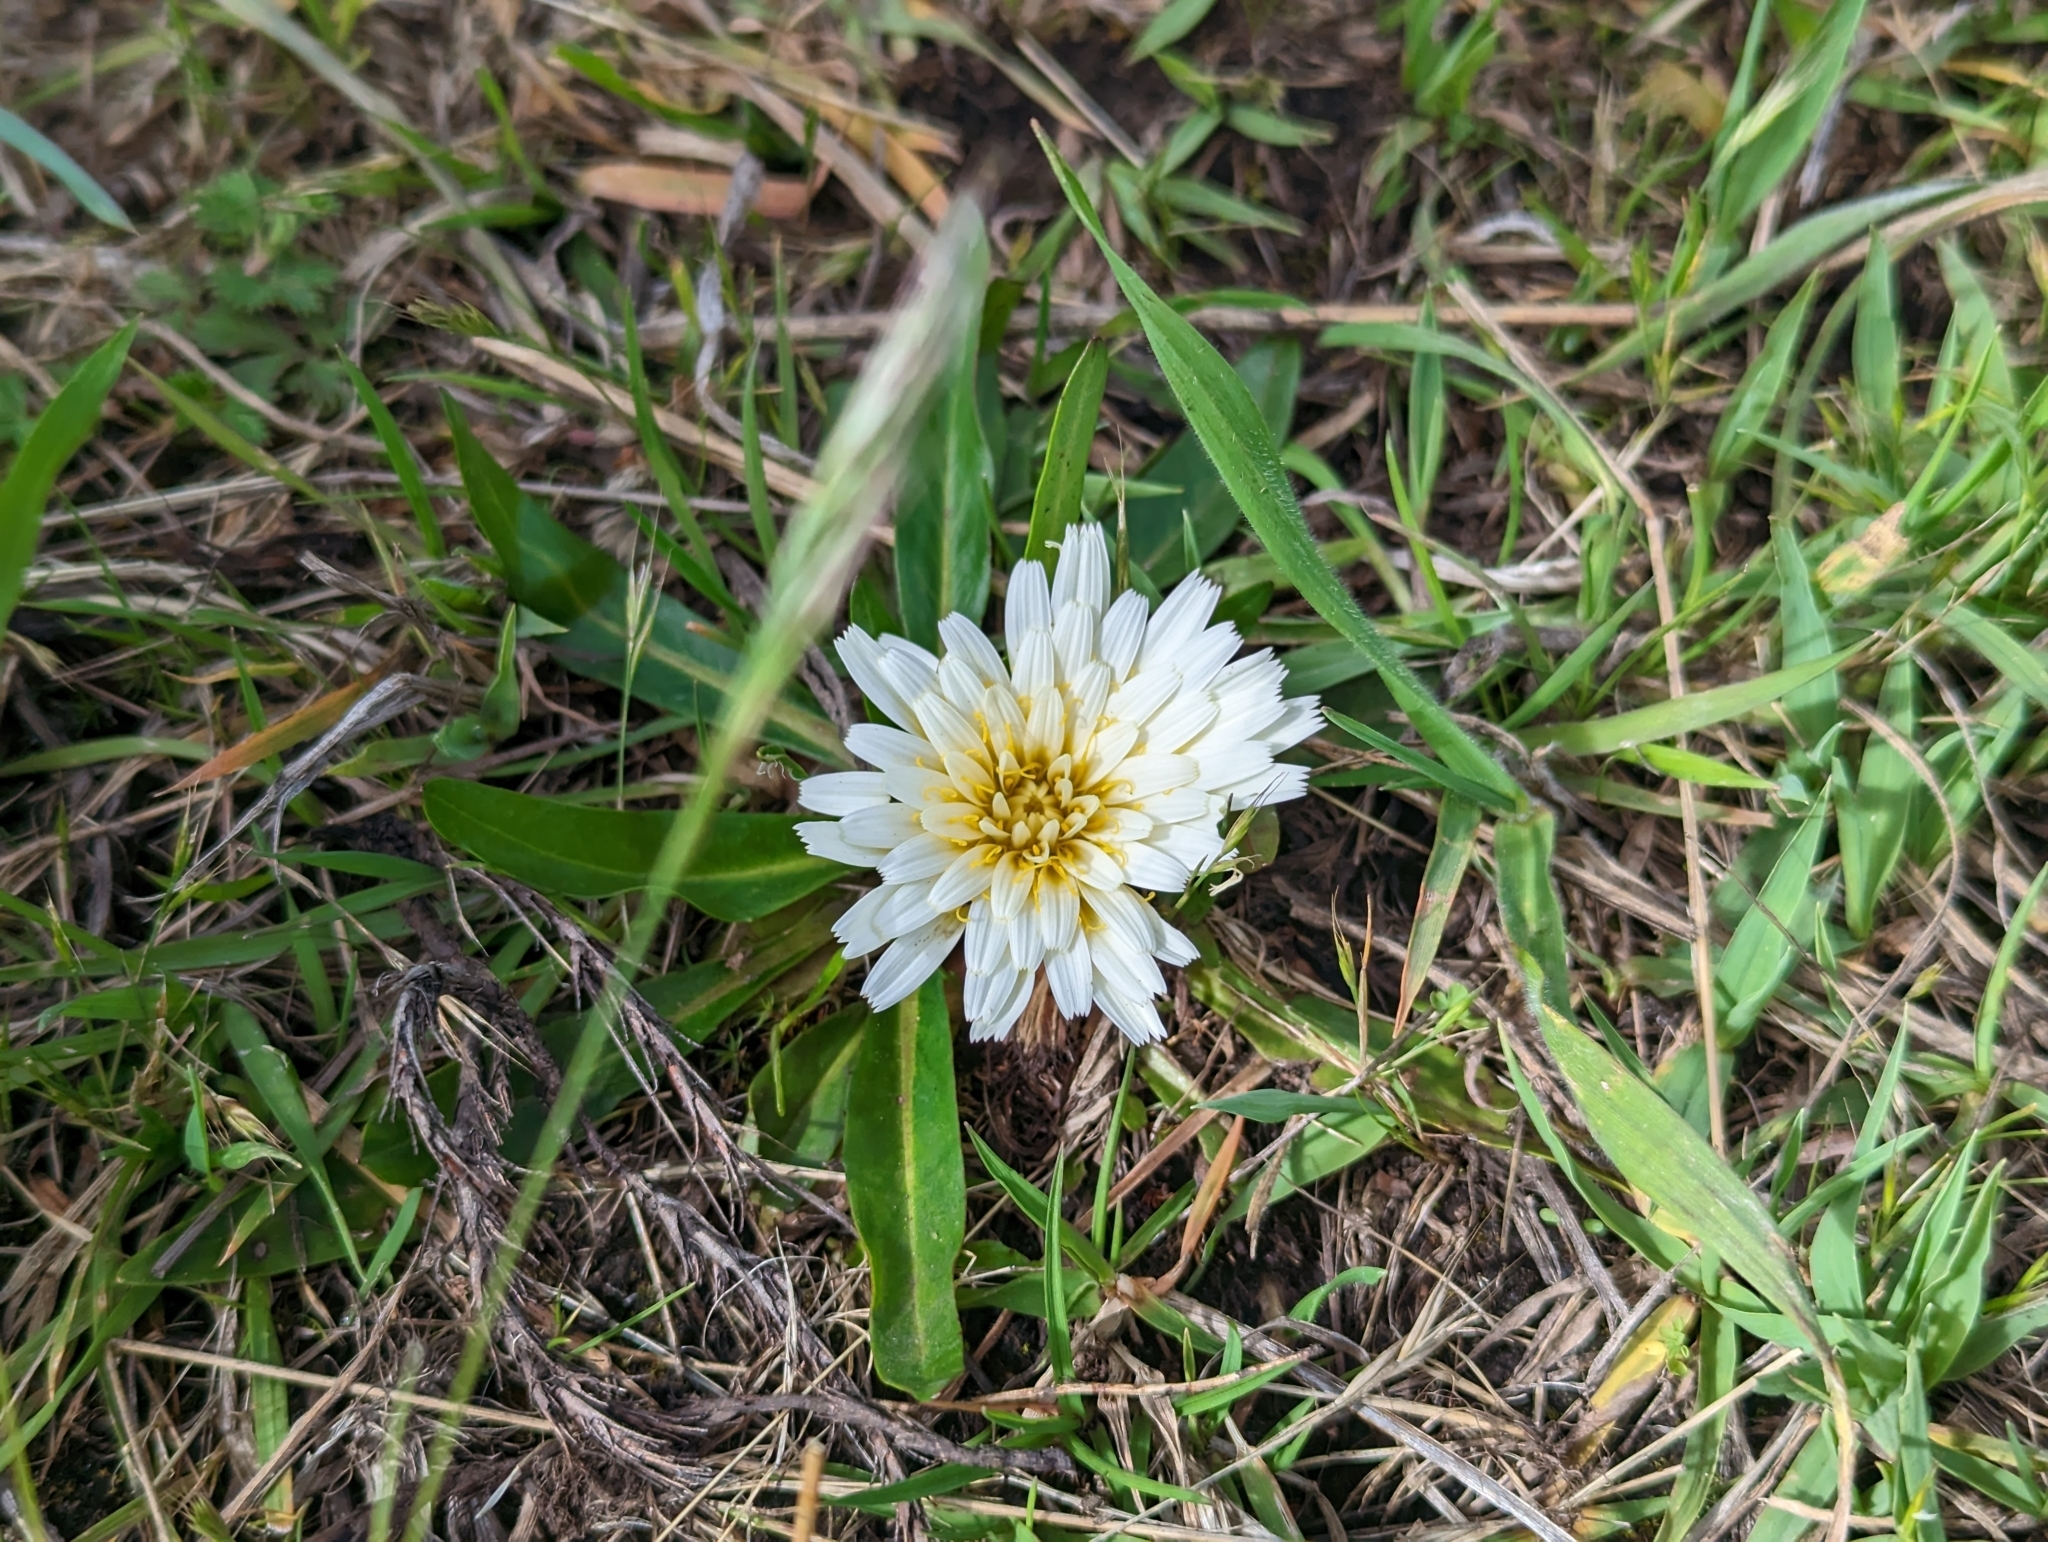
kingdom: Plantae
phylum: Tracheophyta
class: Magnoliopsida
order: Asterales
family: Asteraceae
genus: Hypochaeris
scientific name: Hypochaeris sessiliflora
